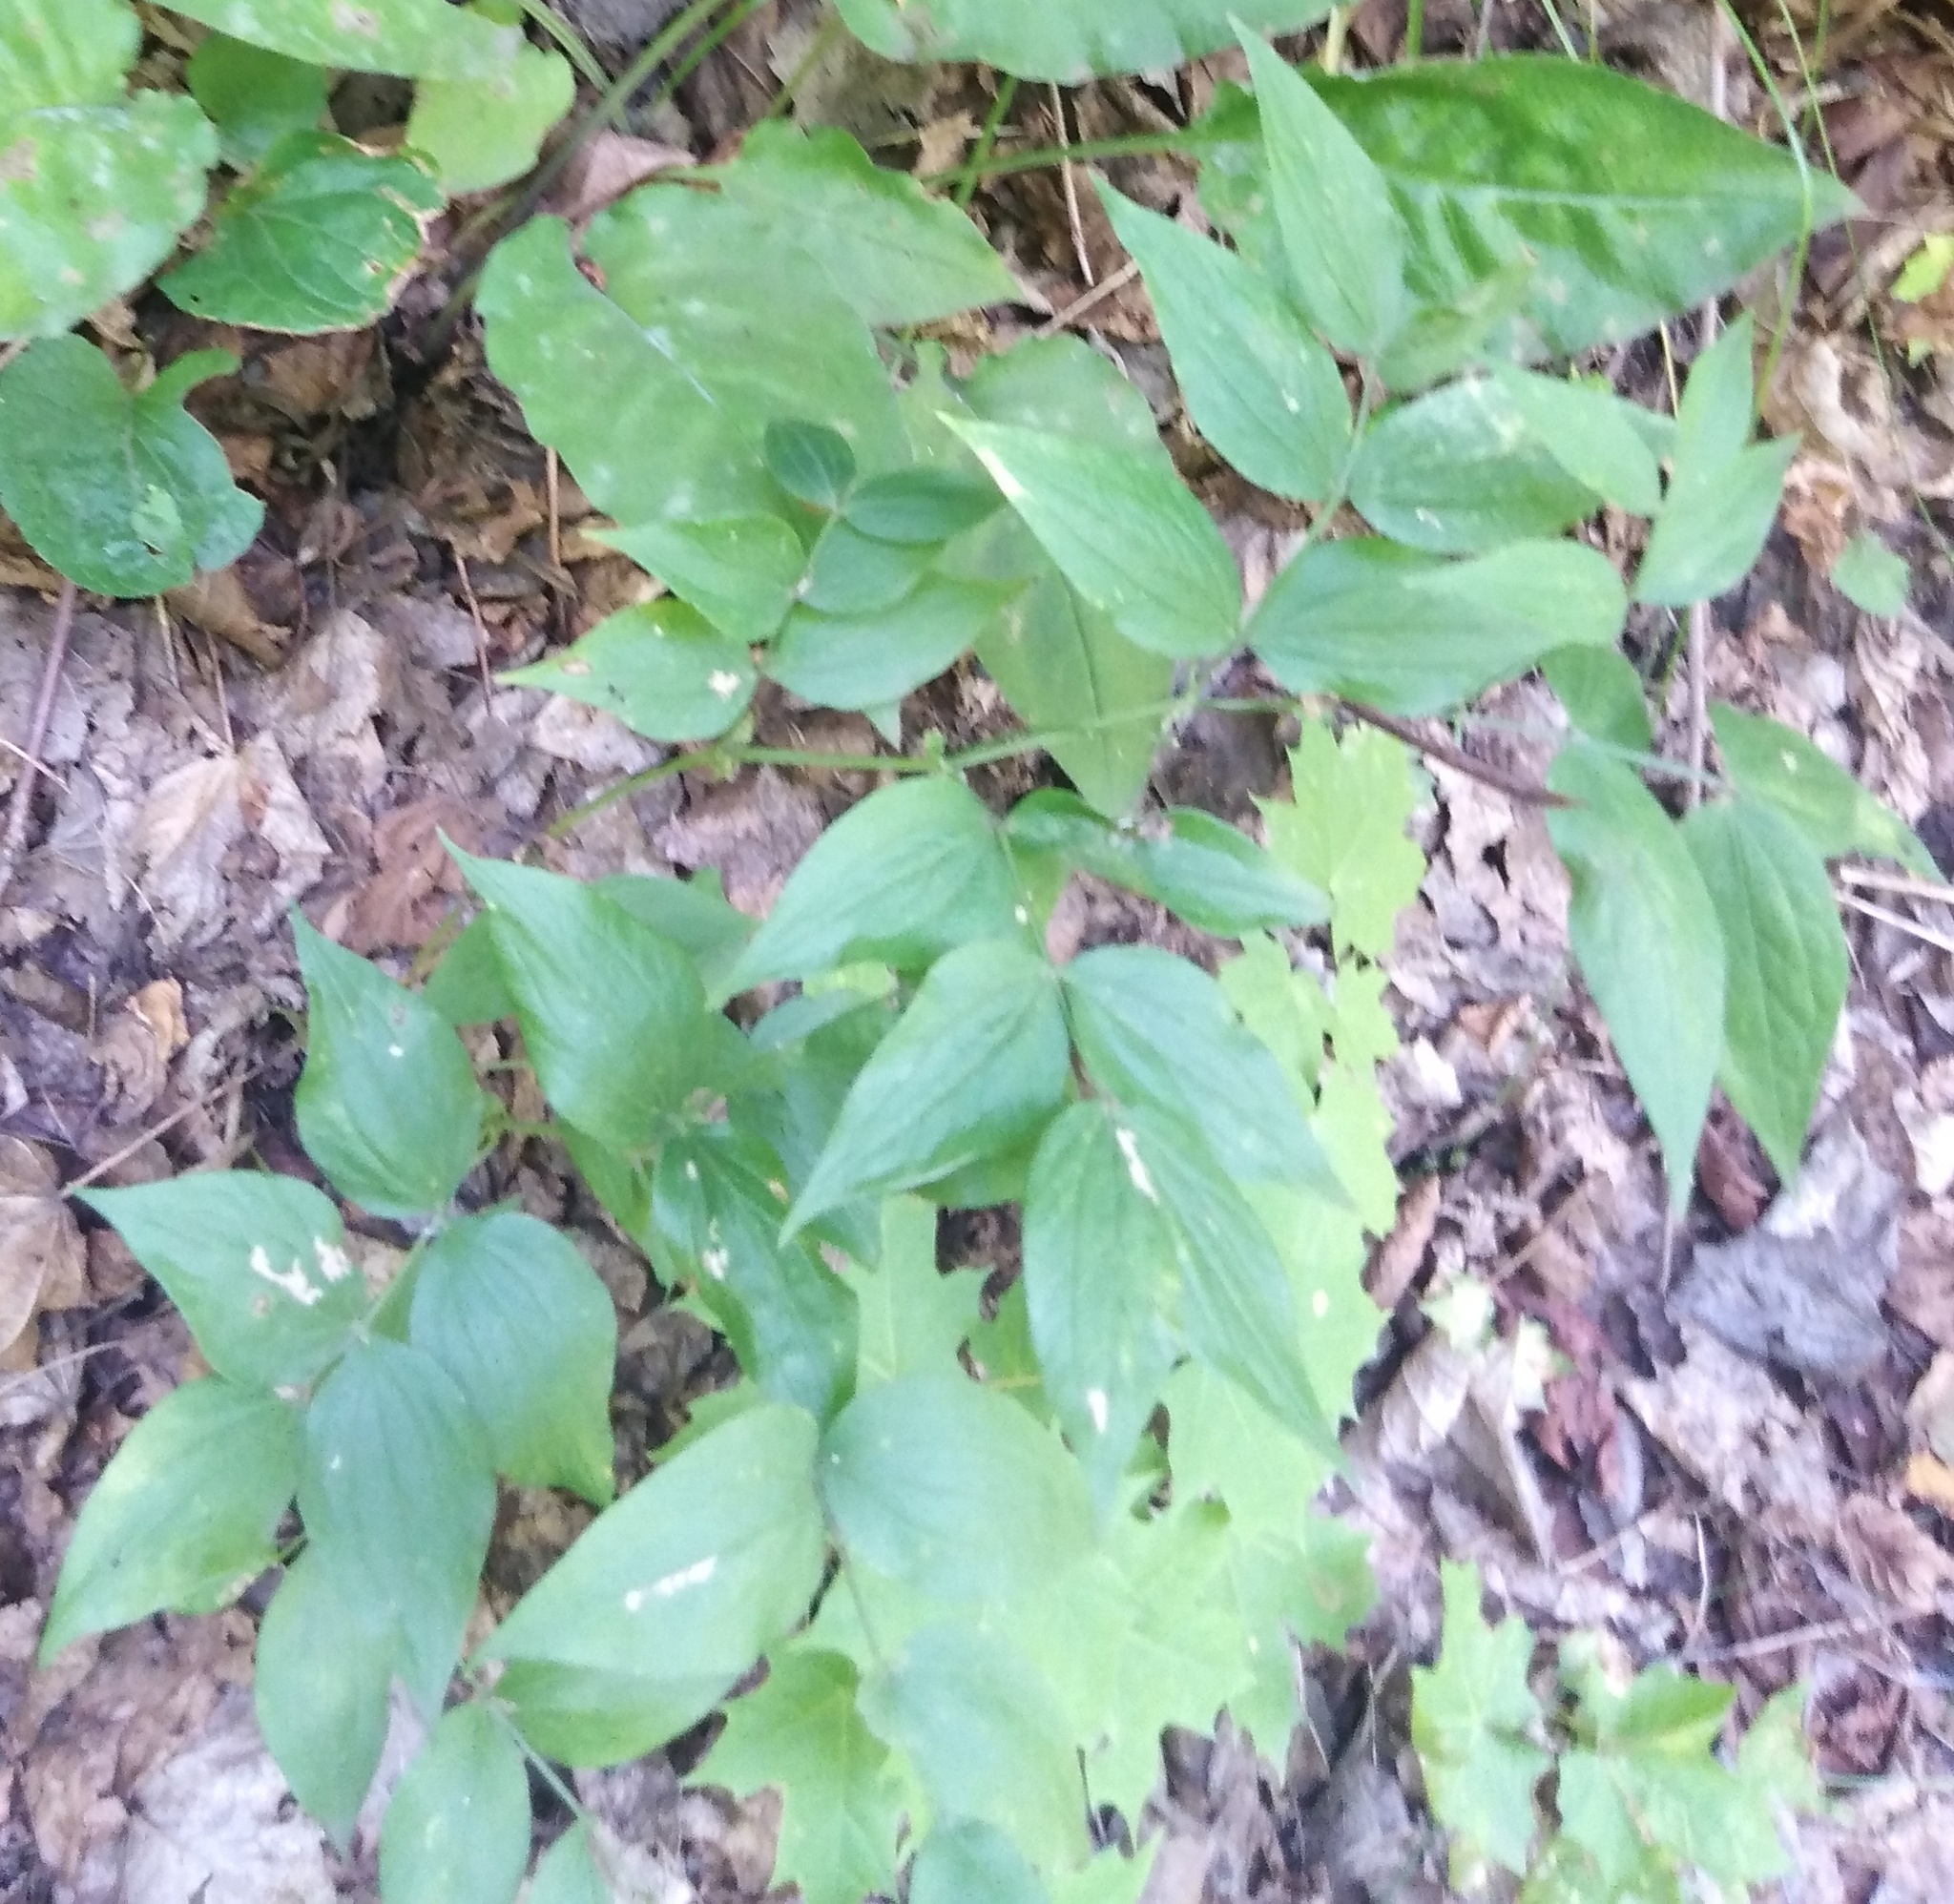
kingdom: Plantae
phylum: Tracheophyta
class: Magnoliopsida
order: Fabales
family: Fabaceae
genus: Lathyrus
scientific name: Lathyrus vernus
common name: Spring pea
